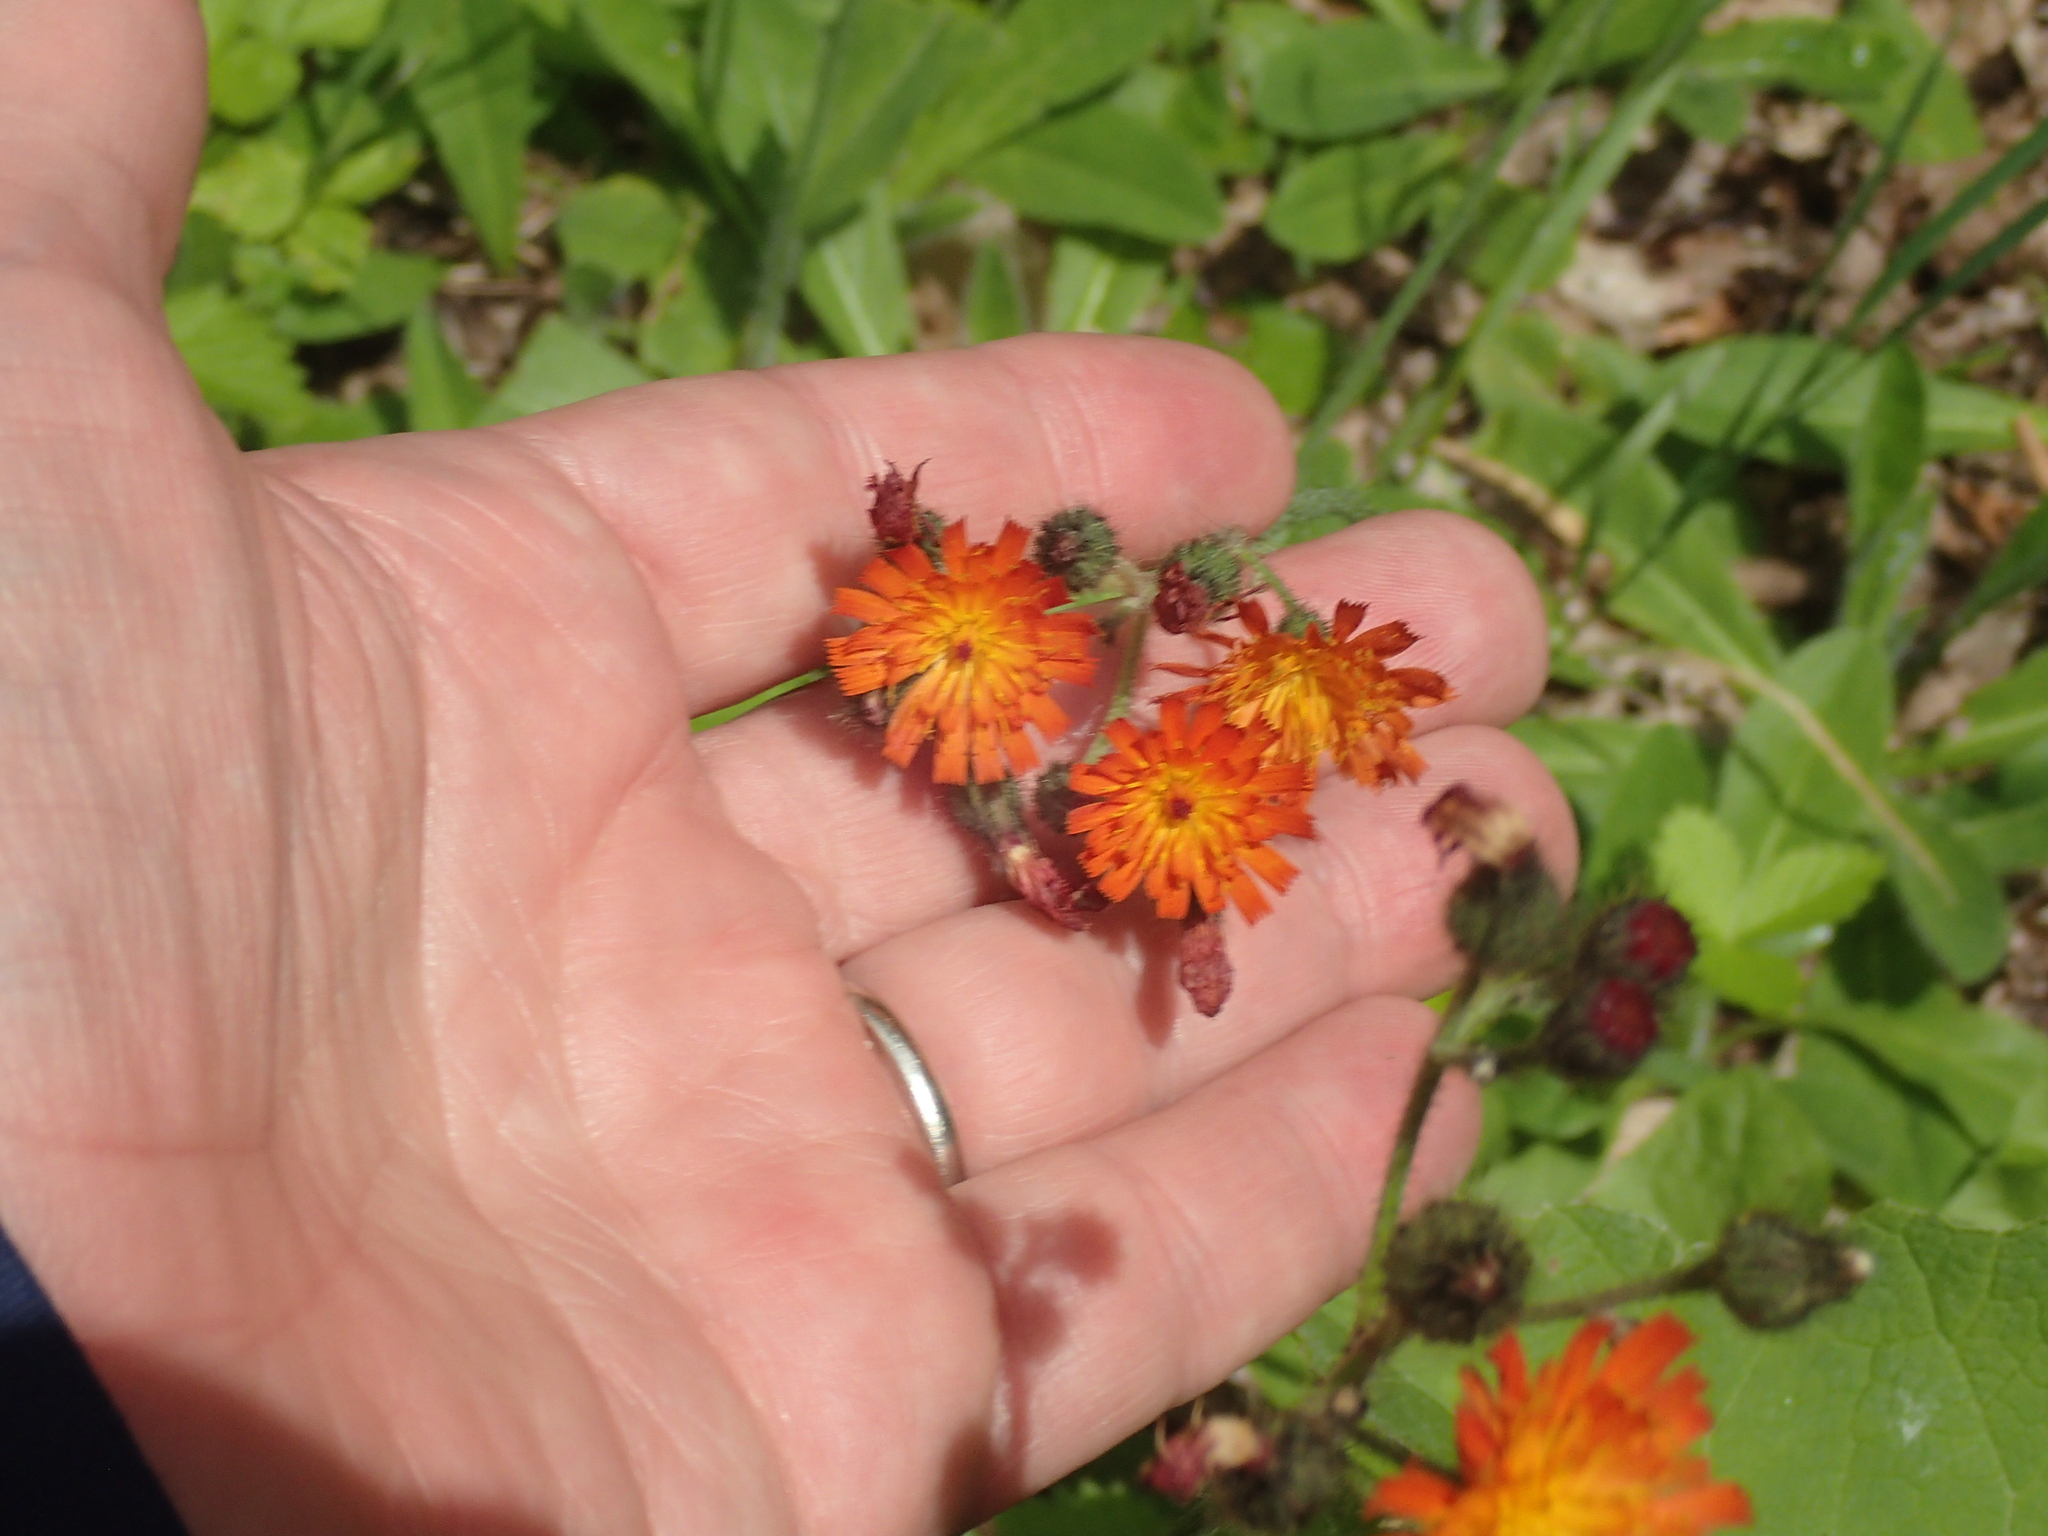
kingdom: Plantae
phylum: Tracheophyta
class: Magnoliopsida
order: Asterales
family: Asteraceae
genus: Pilosella
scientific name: Pilosella aurantiaca
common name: Fox-and-cubs
